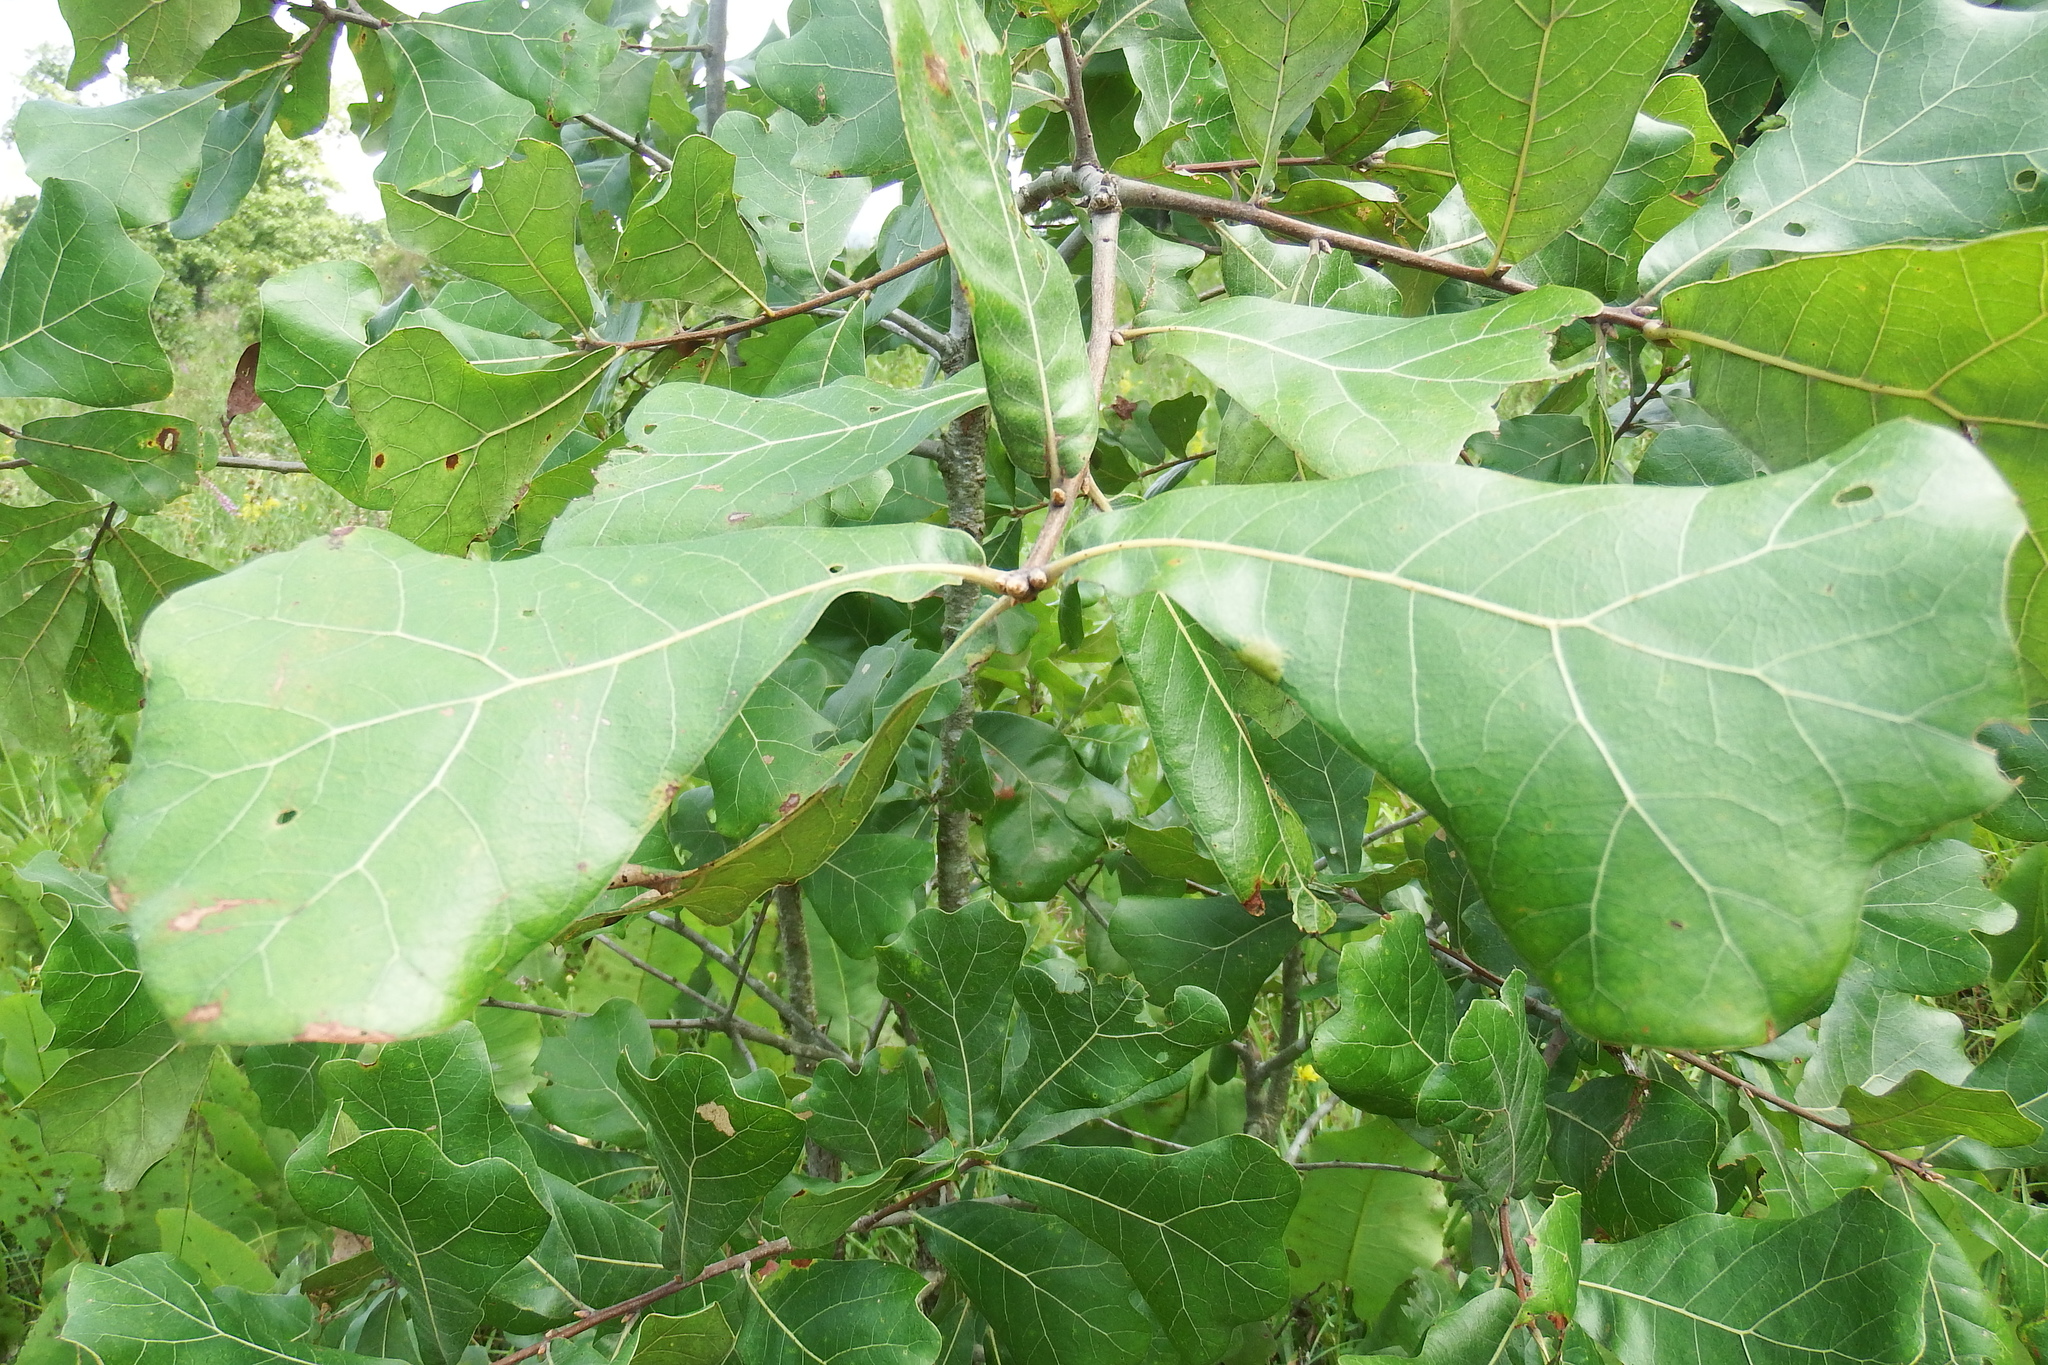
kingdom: Plantae
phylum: Tracheophyta
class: Magnoliopsida
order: Fagales
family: Fagaceae
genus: Quercus
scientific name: Quercus marilandica
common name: Blackjack oak
